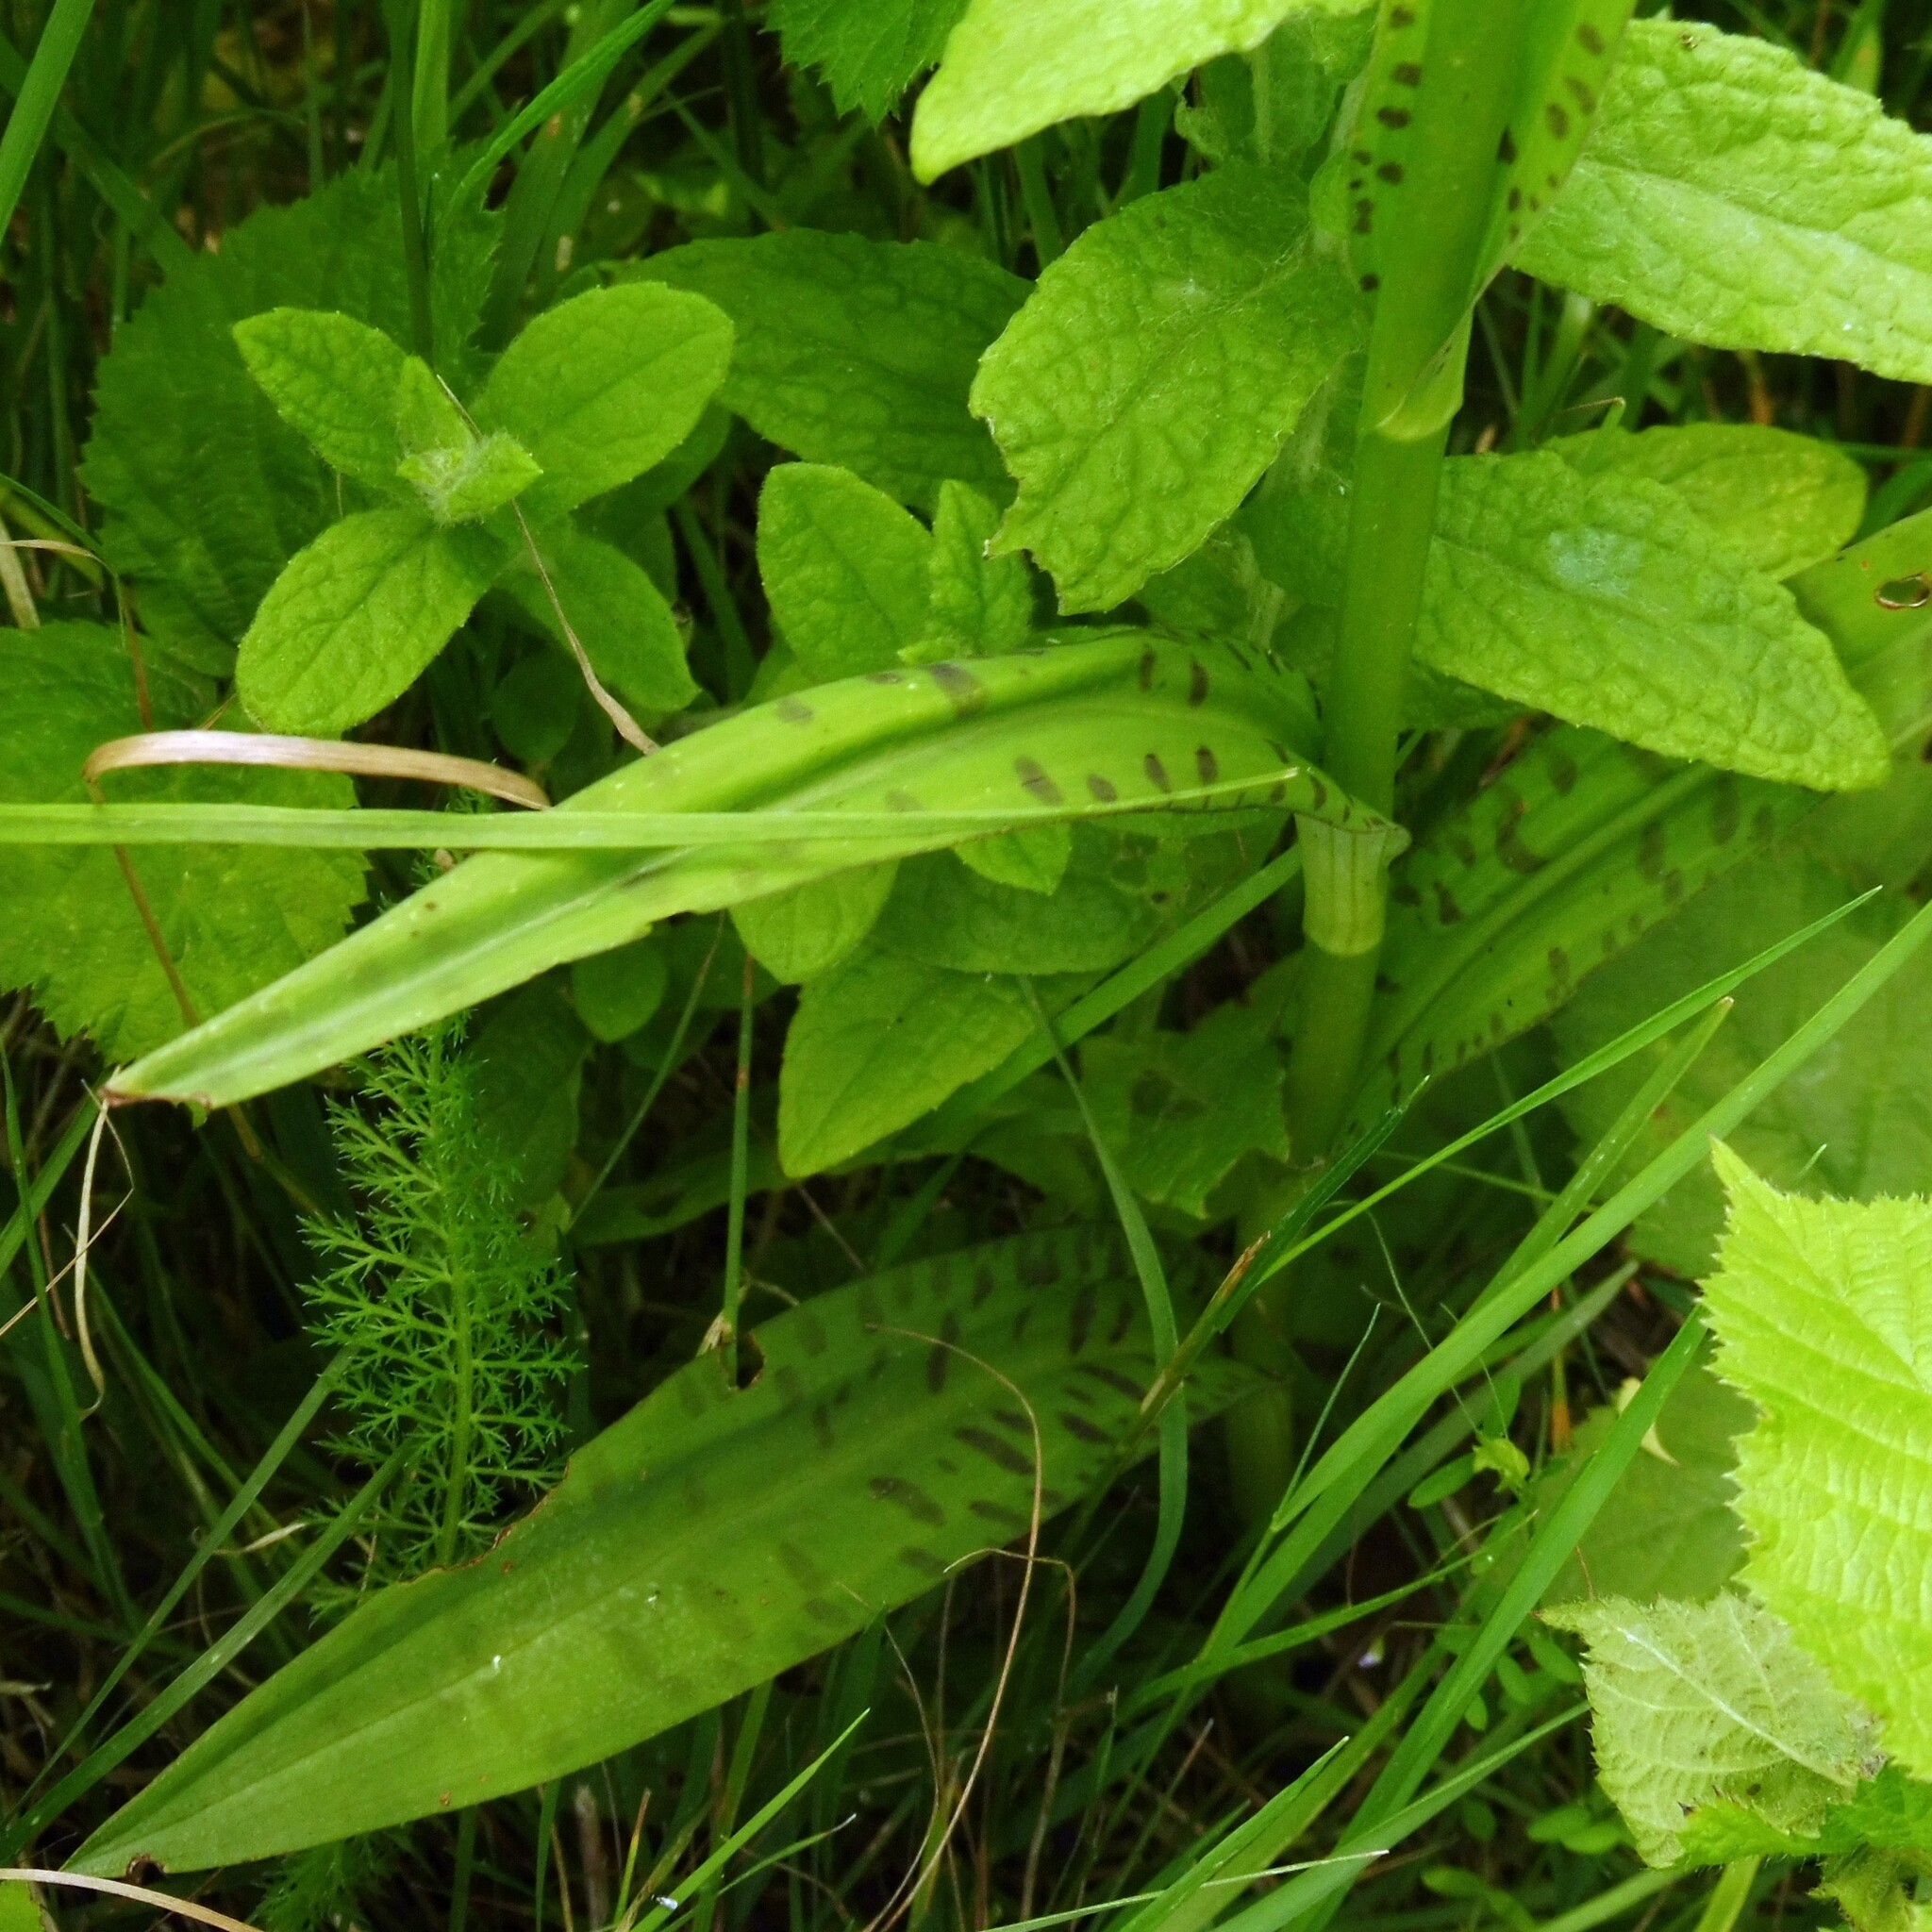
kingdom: Plantae
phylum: Tracheophyta
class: Liliopsida
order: Asparagales
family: Orchidaceae
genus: Dactylorhiza
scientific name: Dactylorhiza maculata
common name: Heath spotted-orchid
